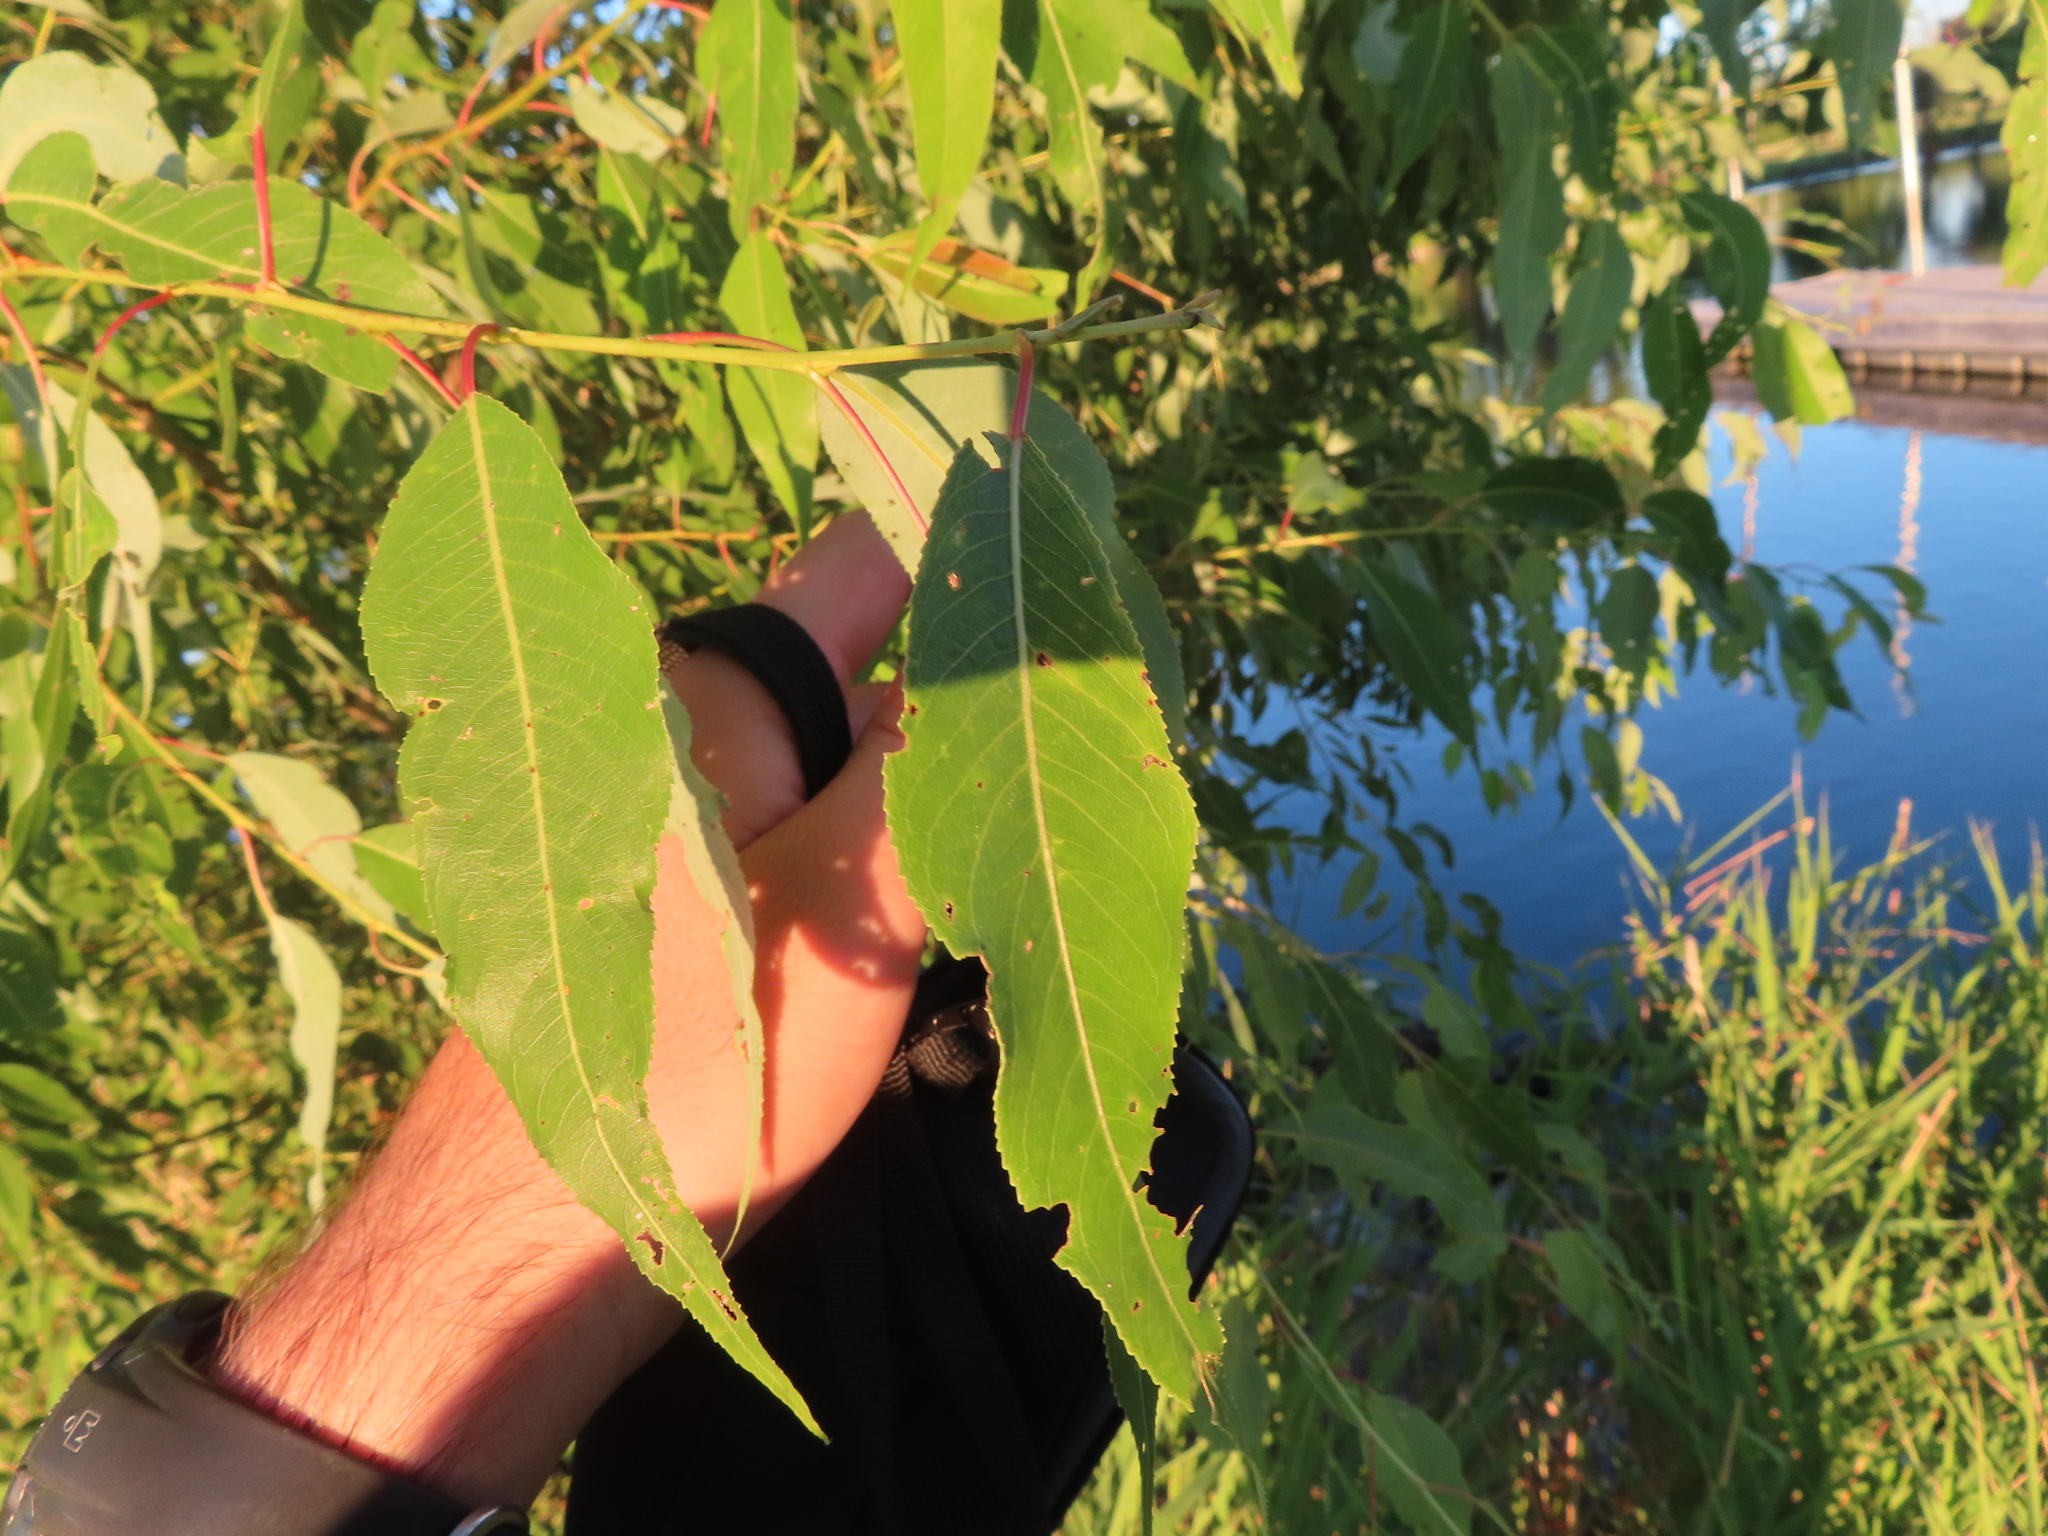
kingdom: Plantae
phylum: Tracheophyta
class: Magnoliopsida
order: Malpighiales
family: Salicaceae
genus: Salix
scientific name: Salix amygdaloides
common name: Peach leaf willow
